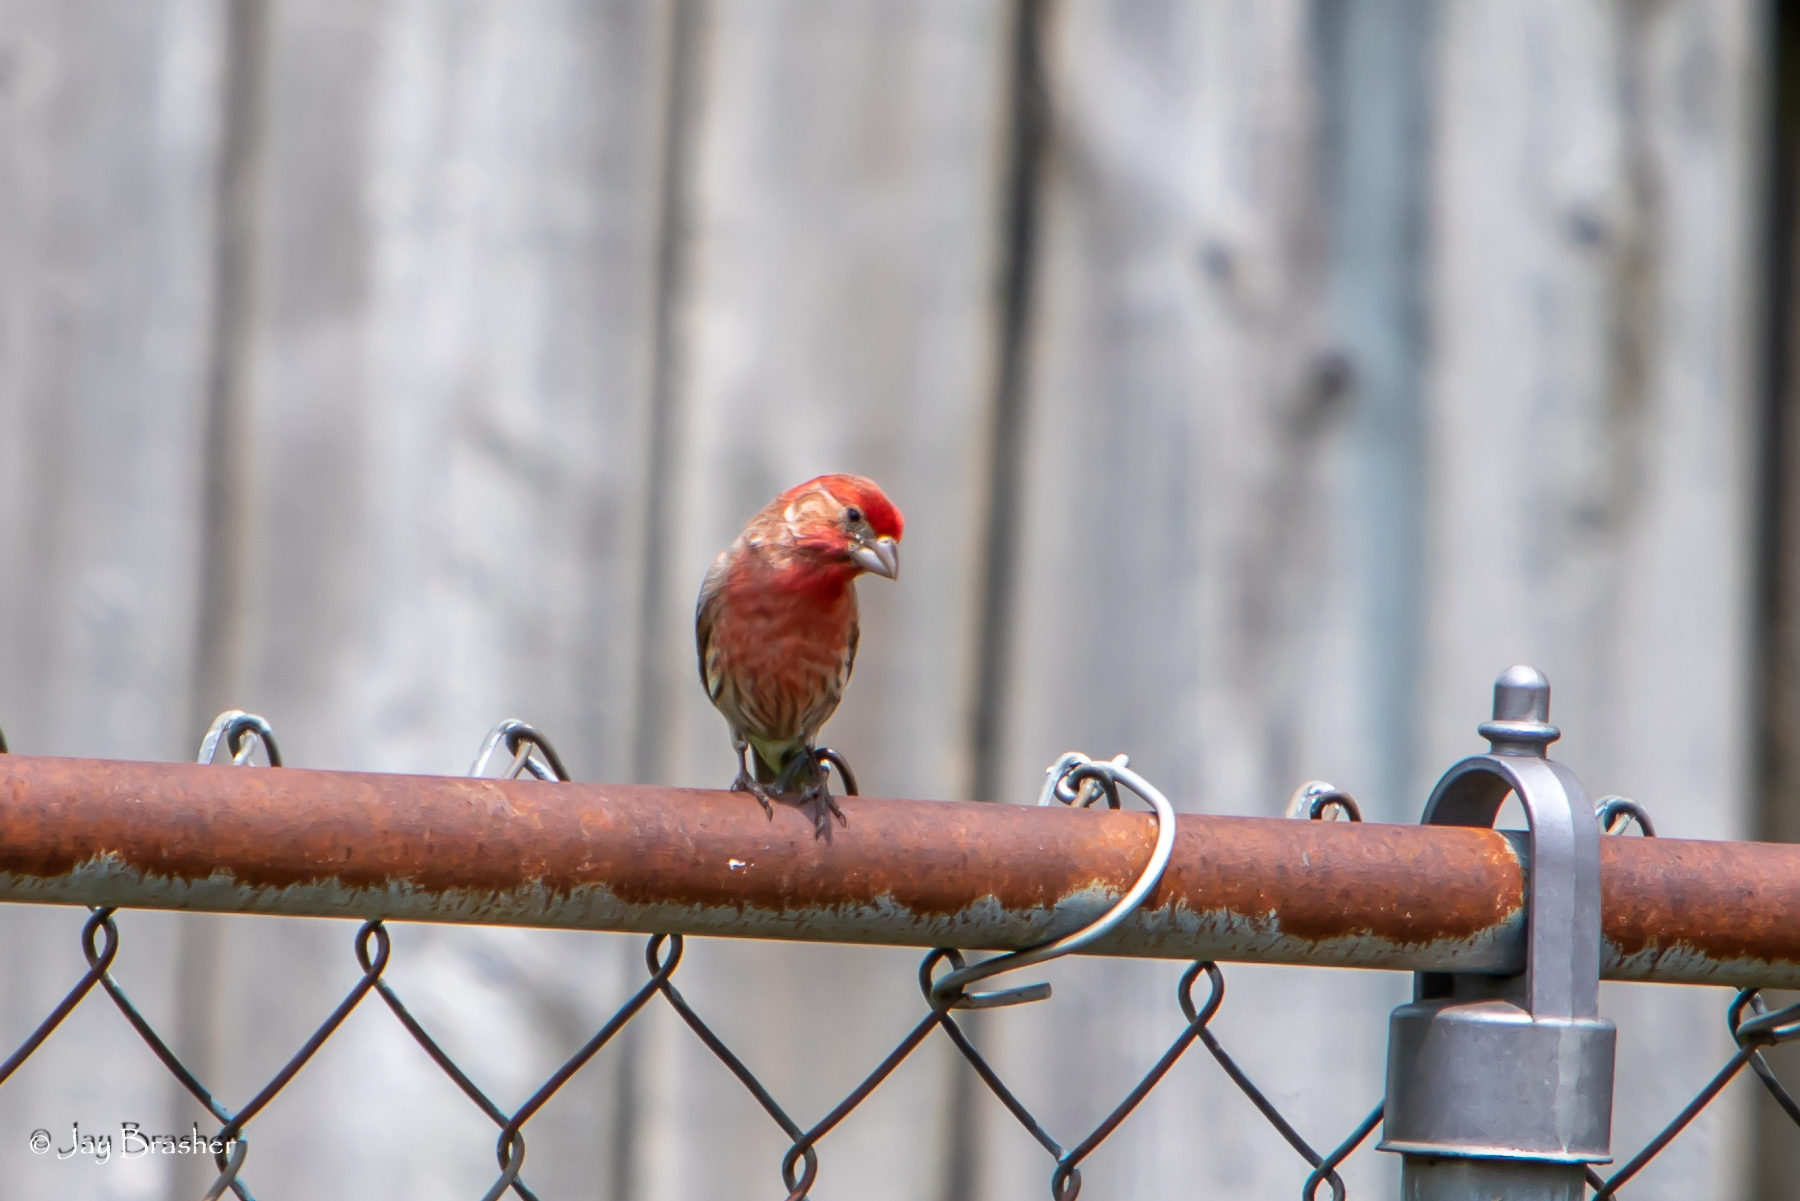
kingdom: Animalia
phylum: Chordata
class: Aves
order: Passeriformes
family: Fringillidae
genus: Haemorhous
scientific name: Haemorhous mexicanus
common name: House finch
